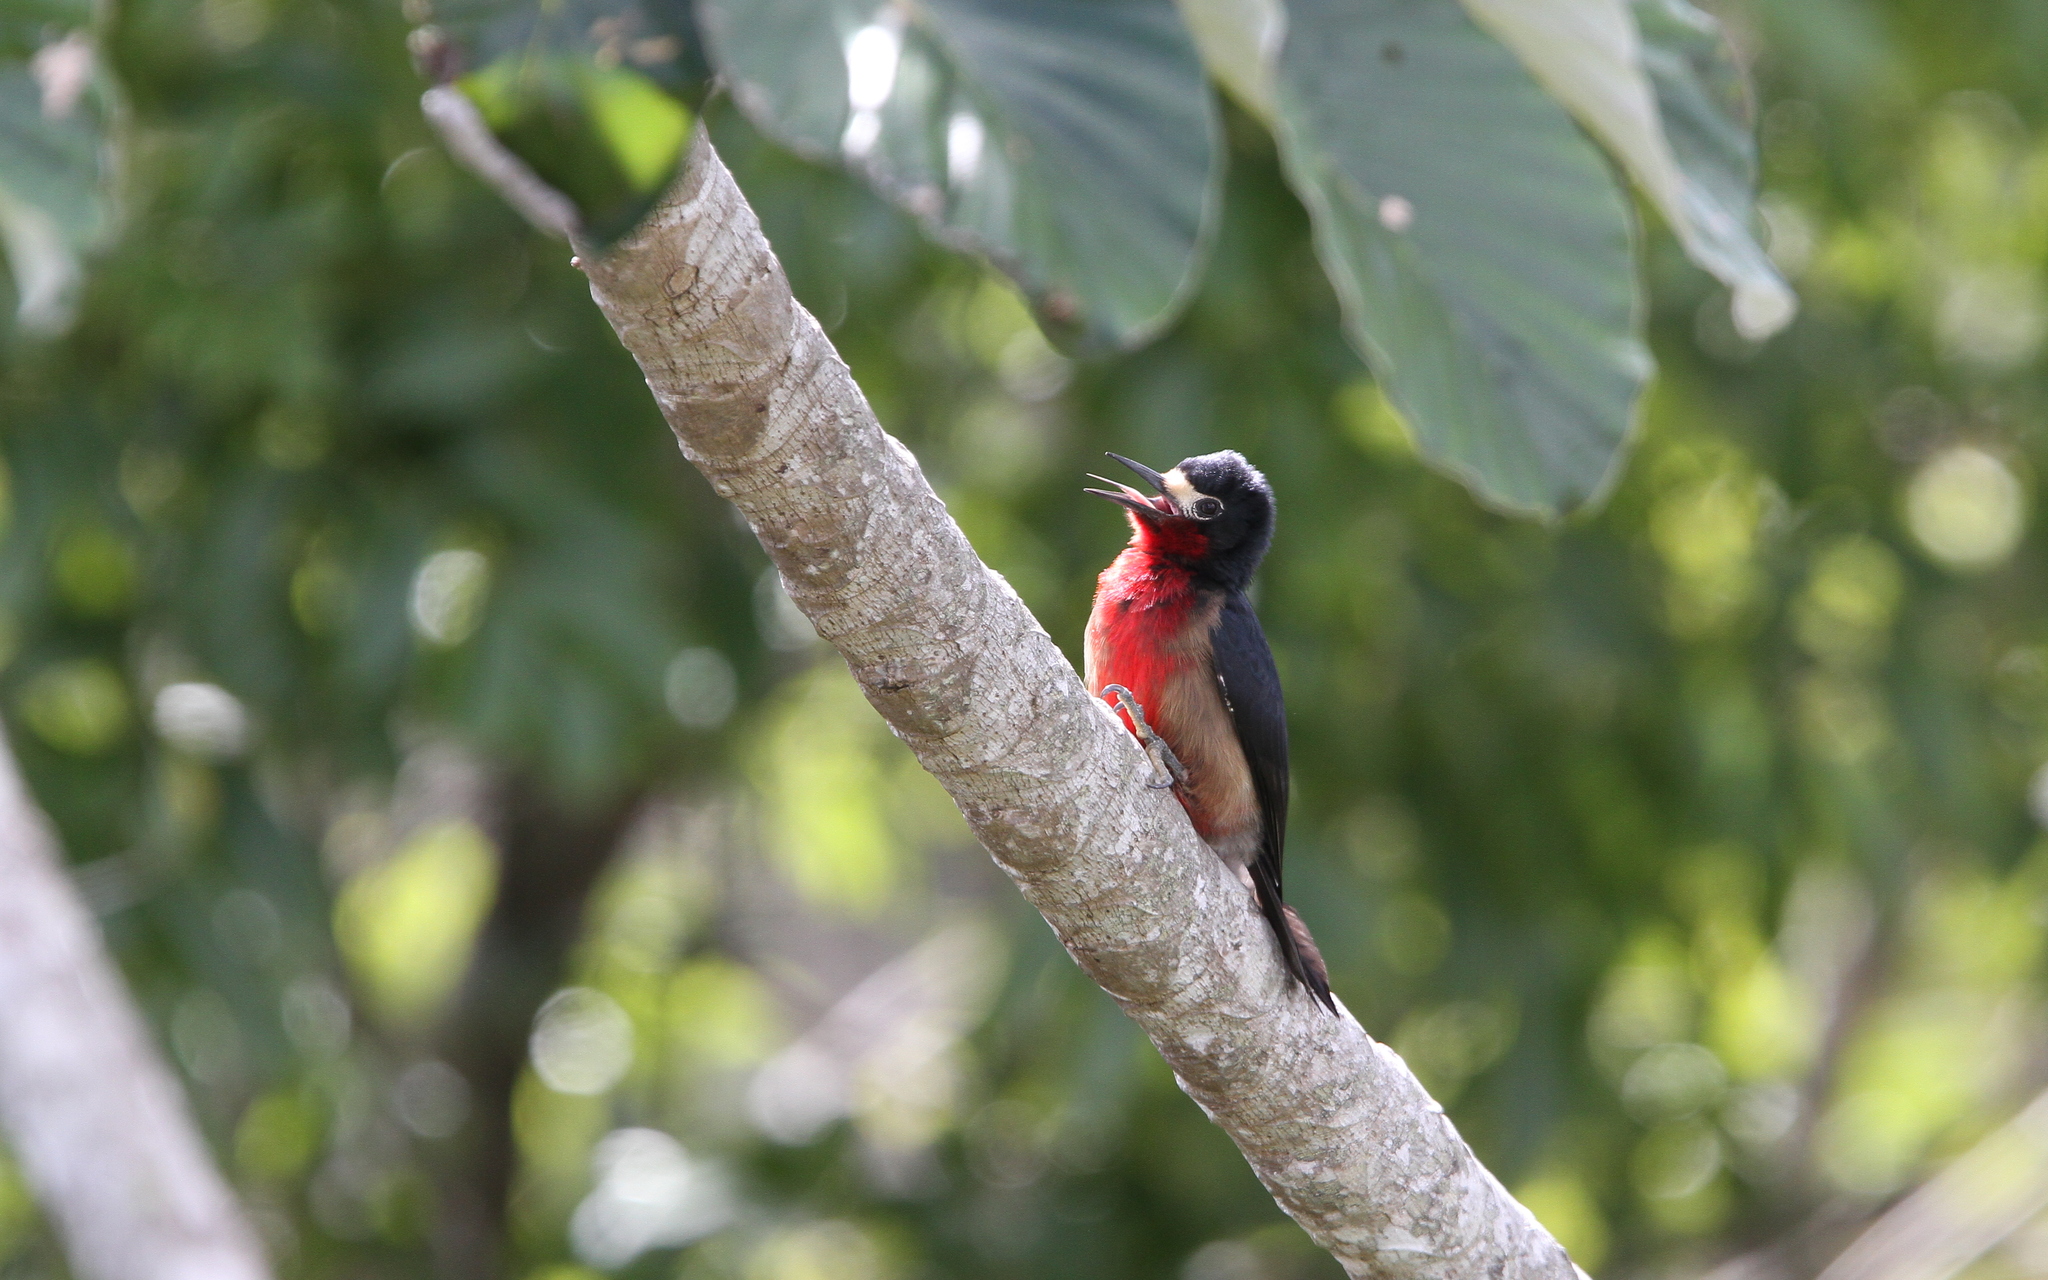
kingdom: Animalia
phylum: Chordata
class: Aves
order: Piciformes
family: Picidae
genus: Melanerpes
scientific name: Melanerpes portoricensis
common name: Puerto rican woodpecker
